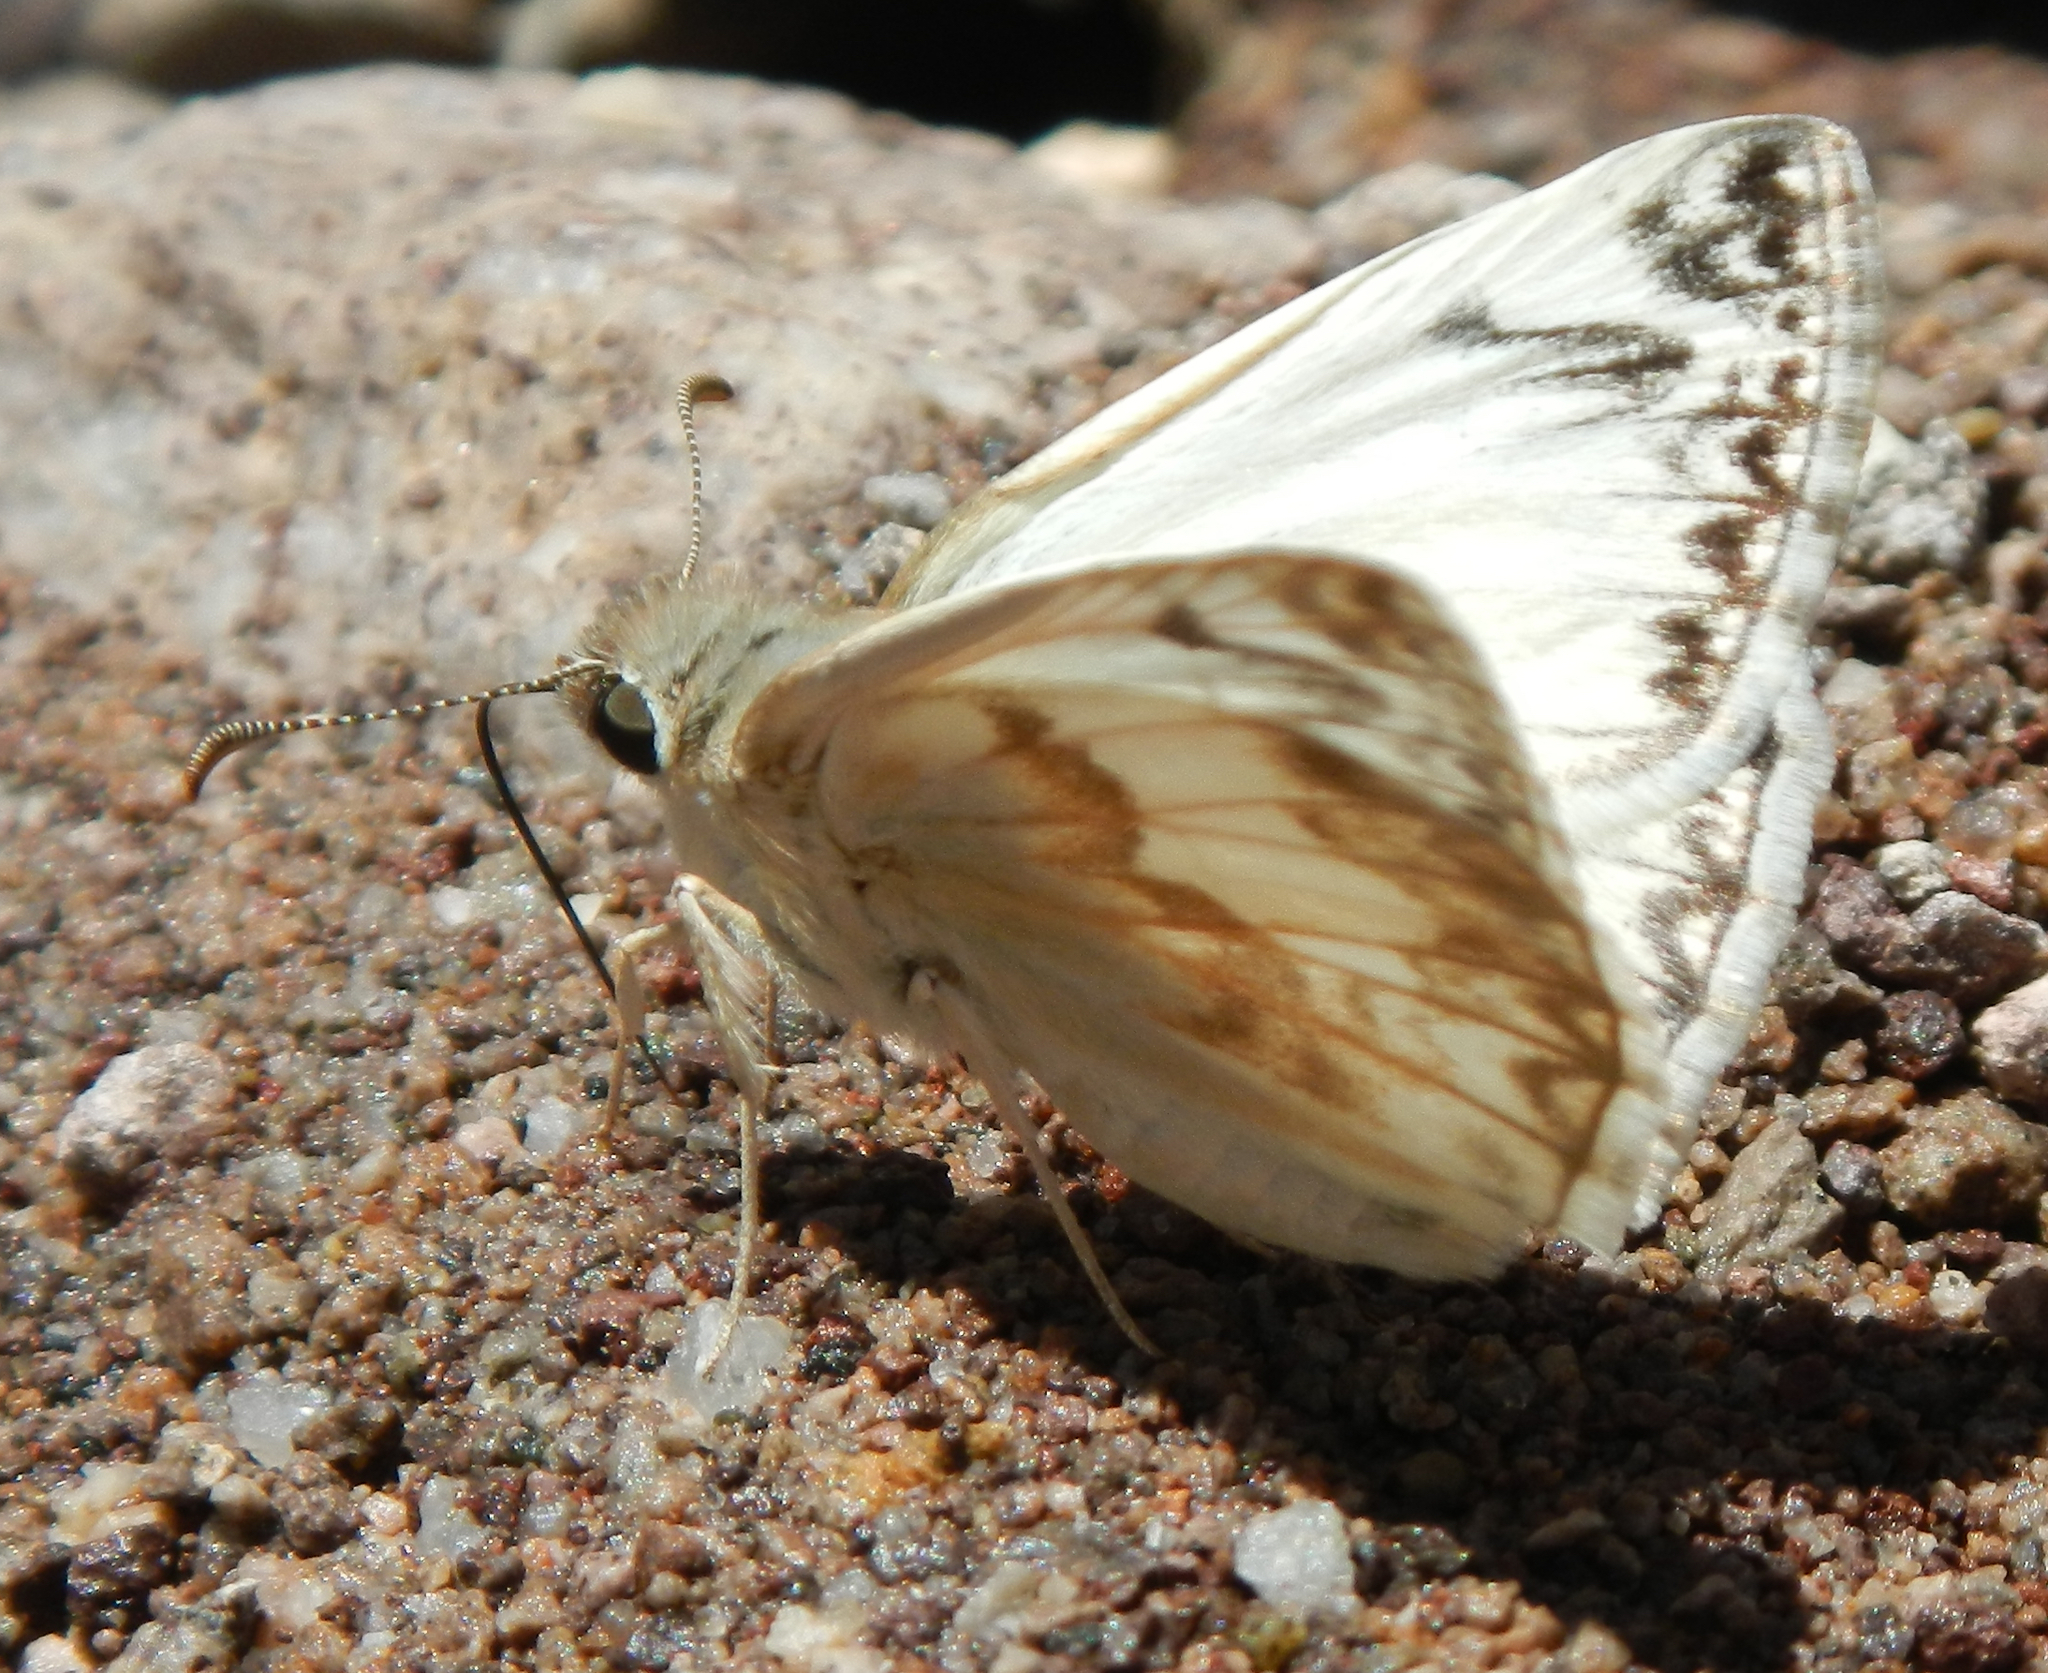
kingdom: Animalia
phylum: Arthropoda
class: Insecta
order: Lepidoptera
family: Hesperiidae
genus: Heliopetes
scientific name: Heliopetes ericetorum
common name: Northern white-skipper
